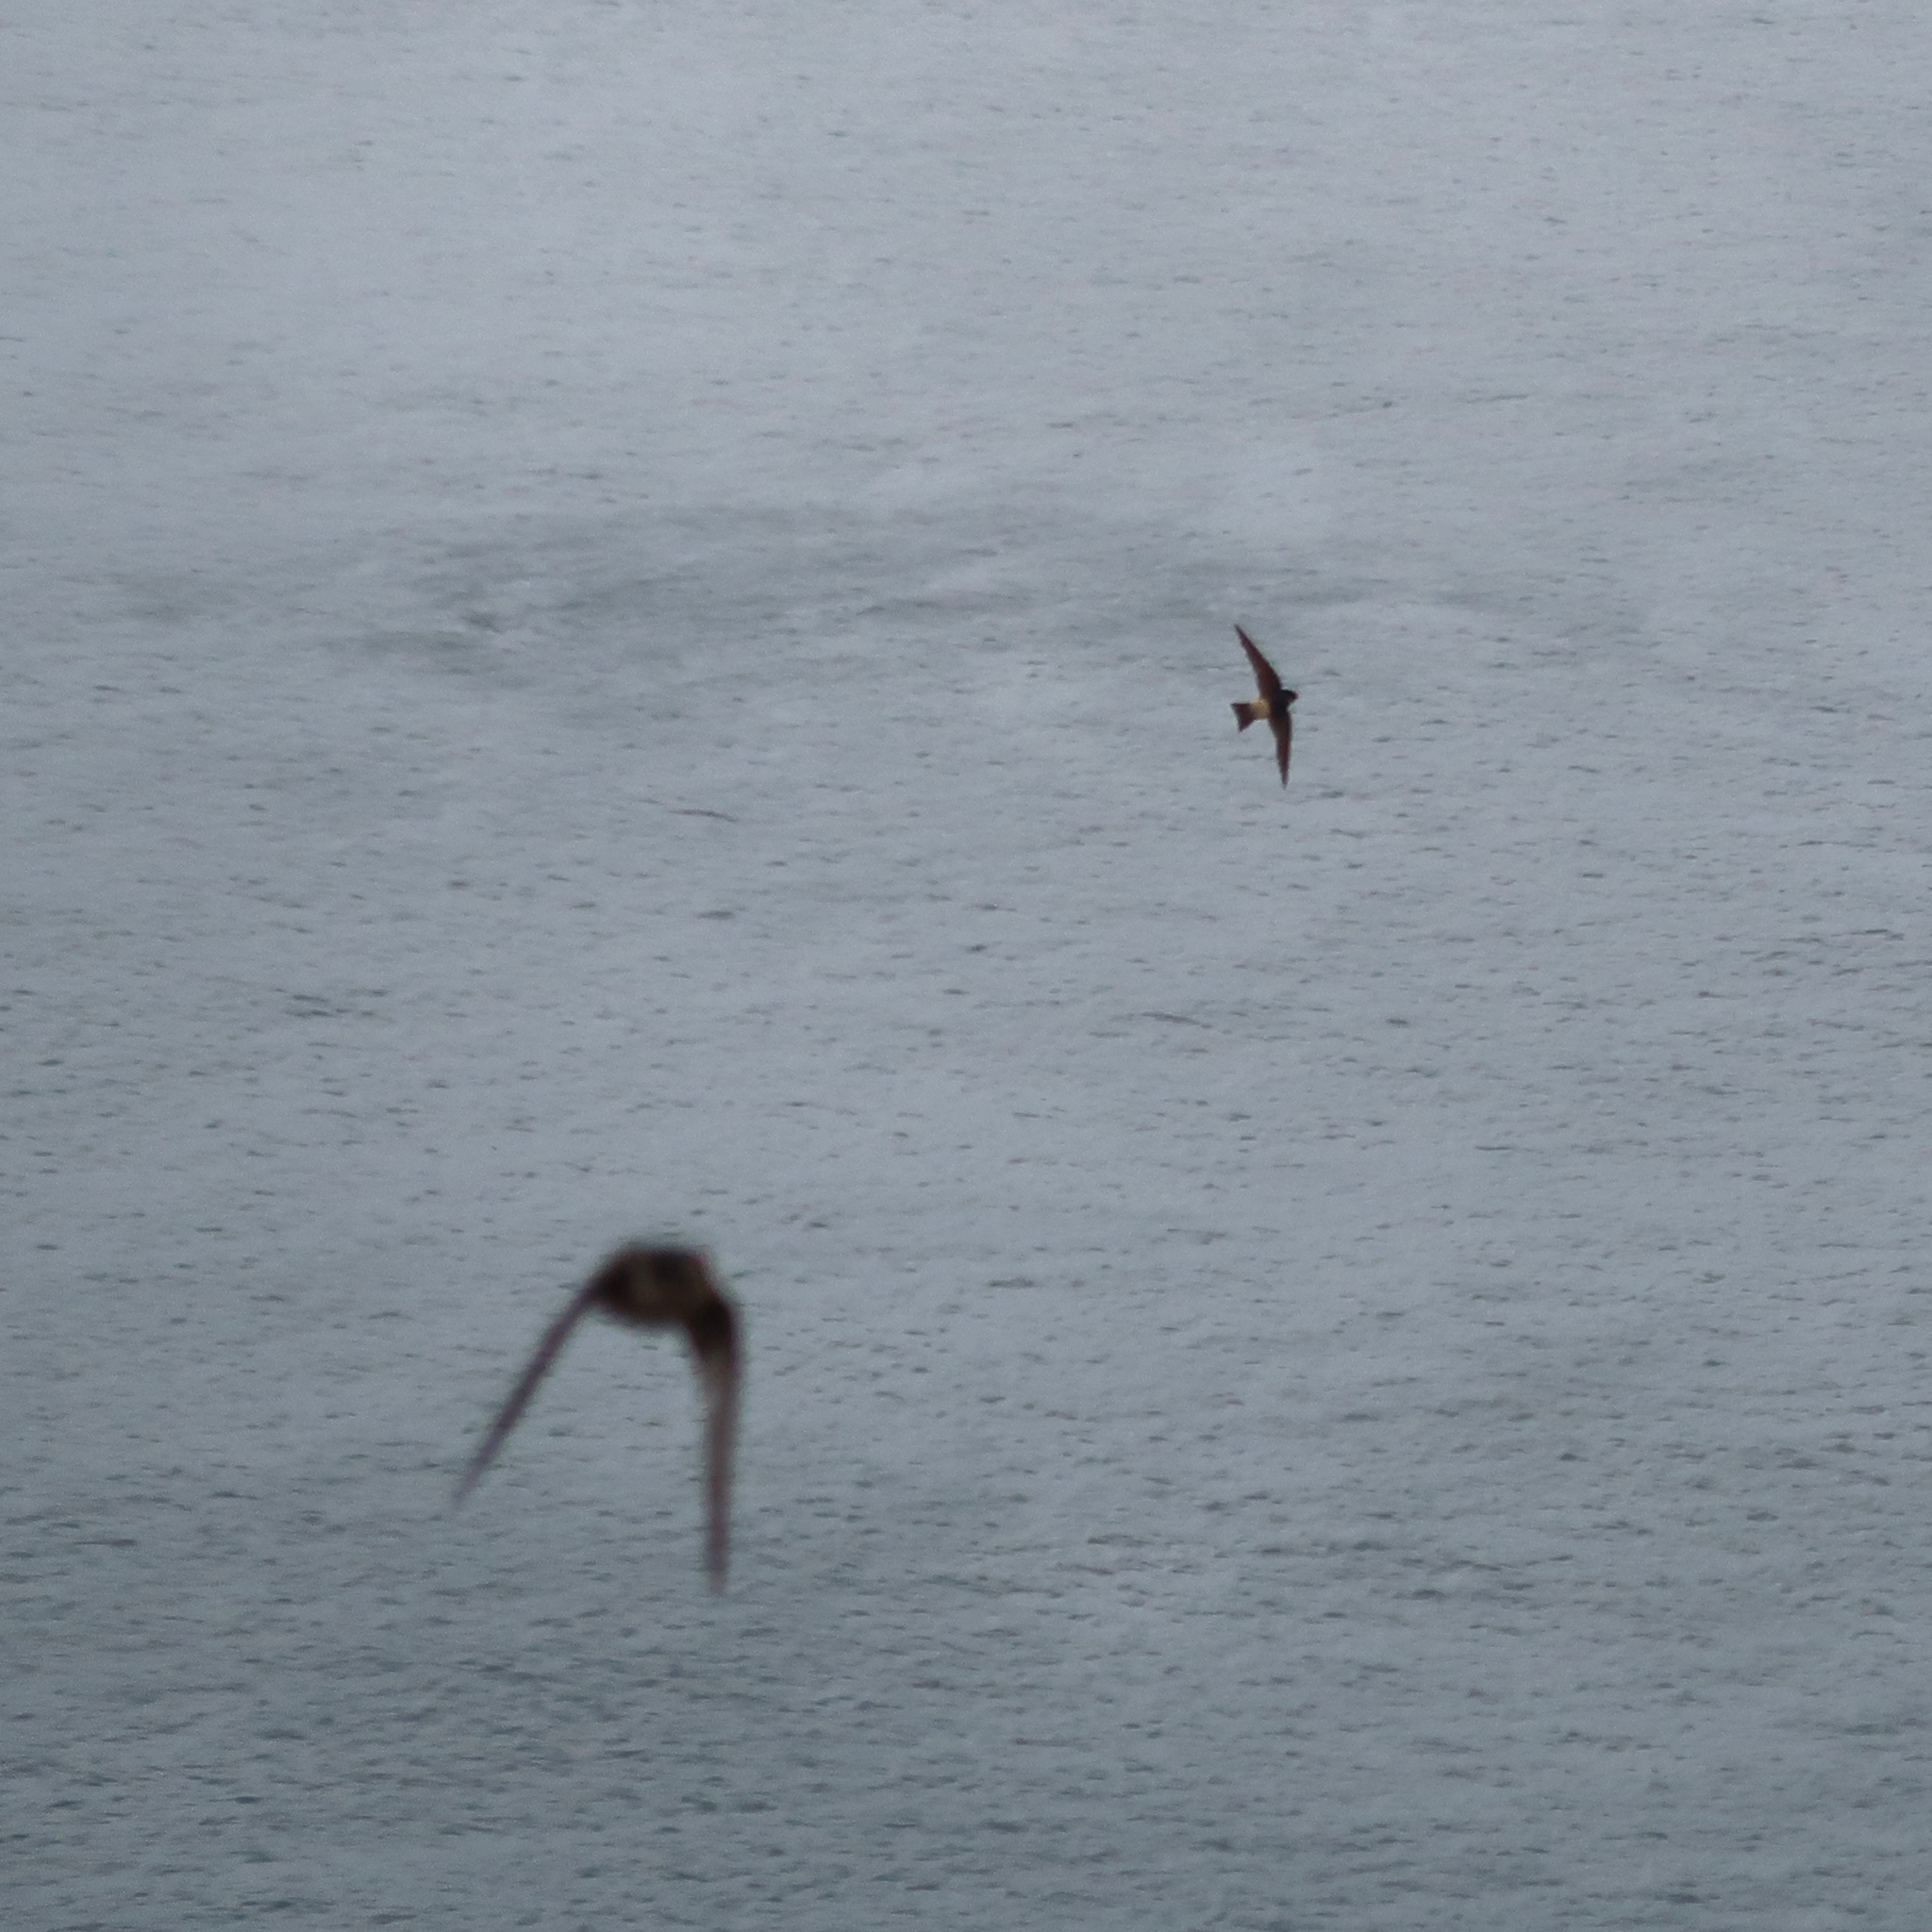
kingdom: Animalia
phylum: Chordata
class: Aves
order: Passeriformes
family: Hirundinidae
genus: Petrochelidon
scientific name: Petrochelidon nigricans
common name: Tree martin
